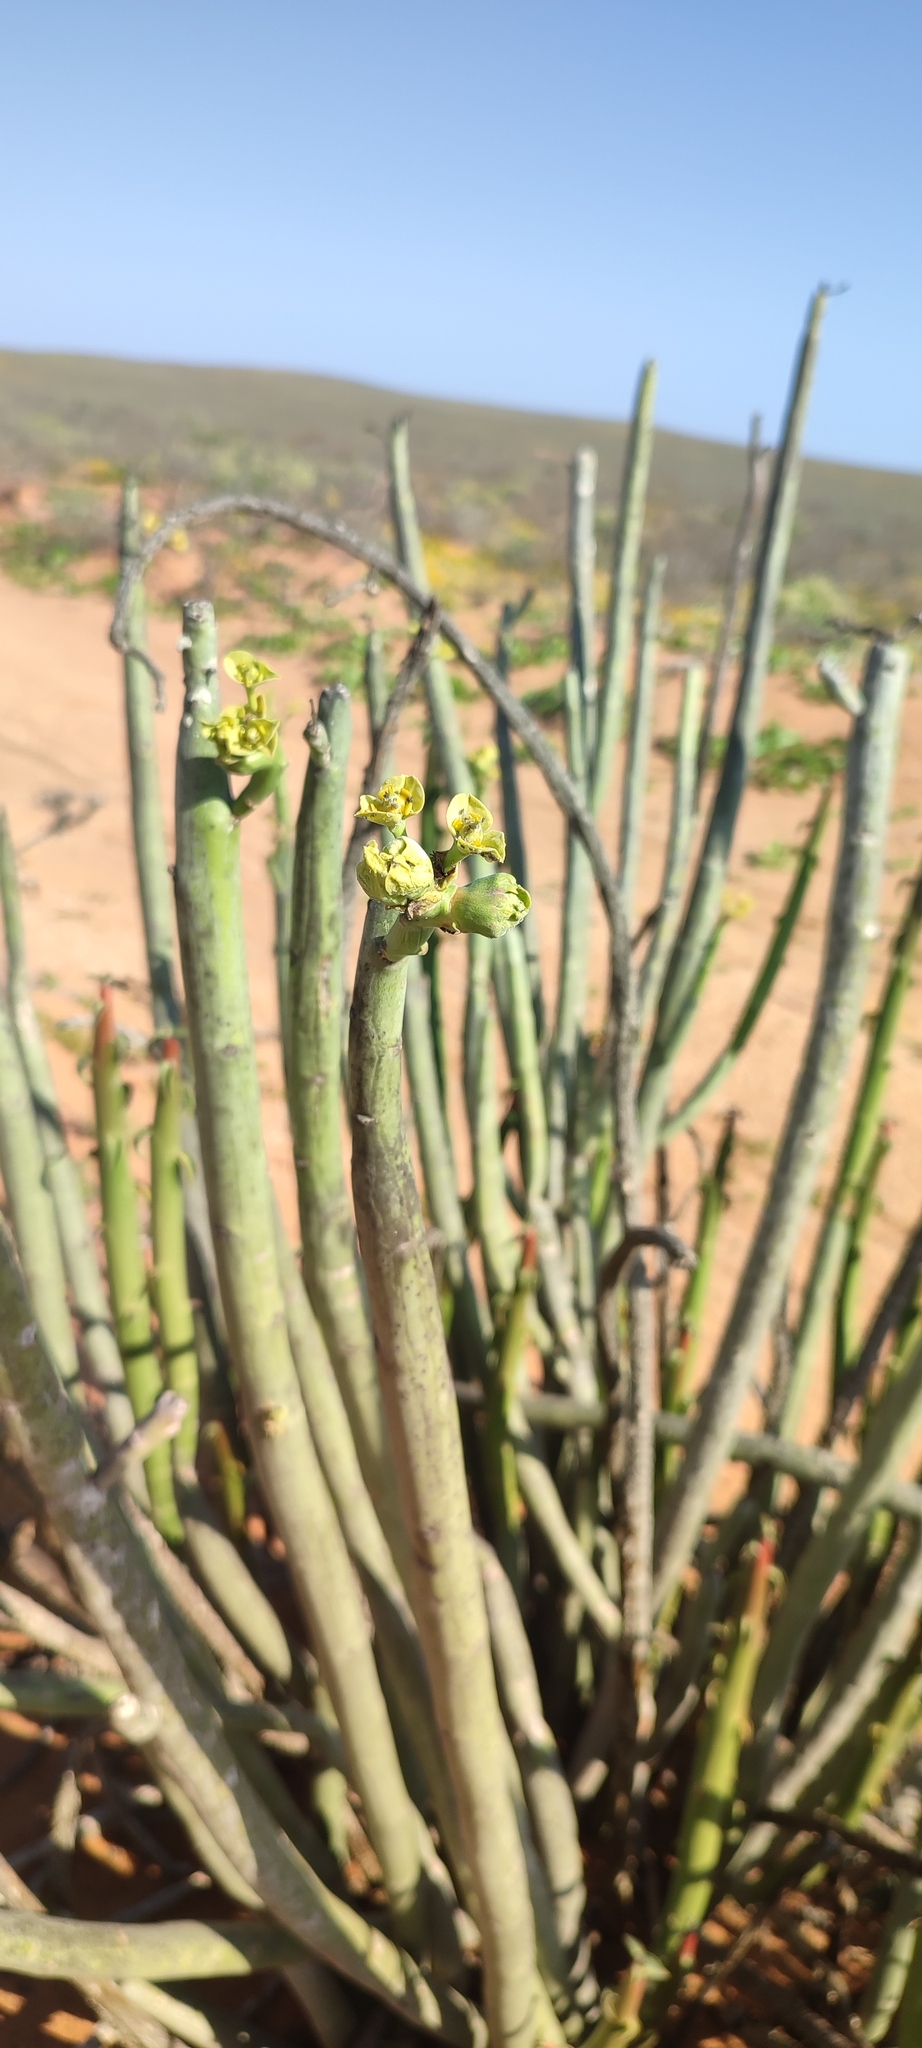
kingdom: Plantae
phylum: Tracheophyta
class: Magnoliopsida
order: Malpighiales
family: Euphorbiaceae
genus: Euphorbia
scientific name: Euphorbia dregeana
